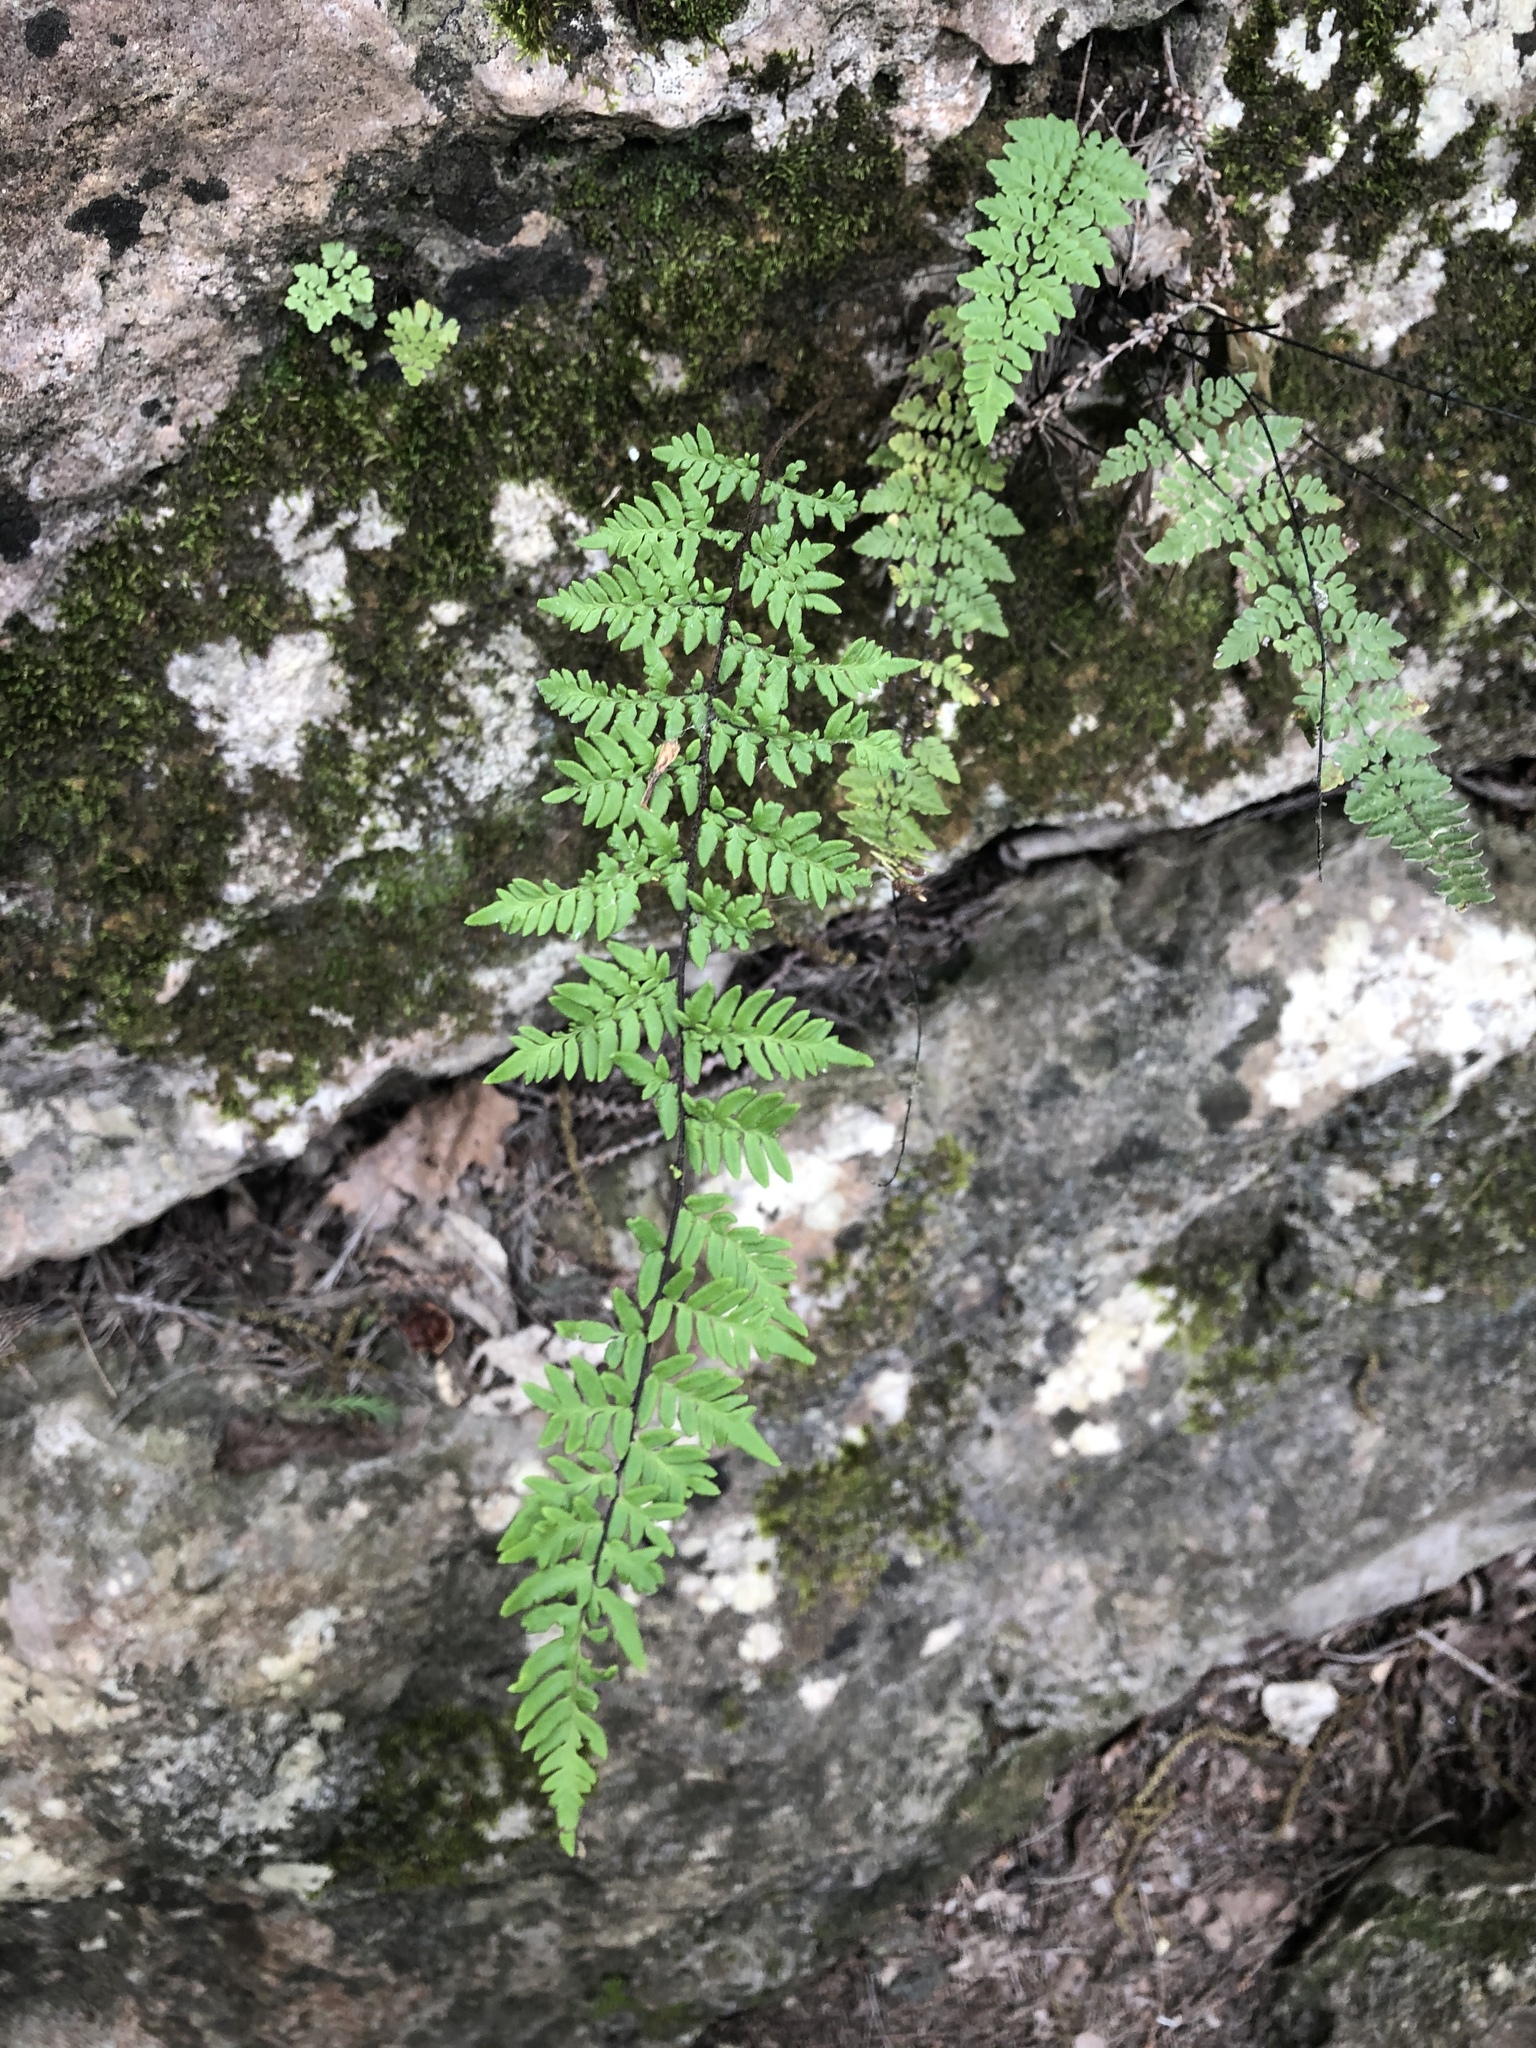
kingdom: Plantae
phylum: Tracheophyta
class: Polypodiopsida
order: Polypodiales
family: Pteridaceae
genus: Myriopteris
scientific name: Myriopteris alabamensis
